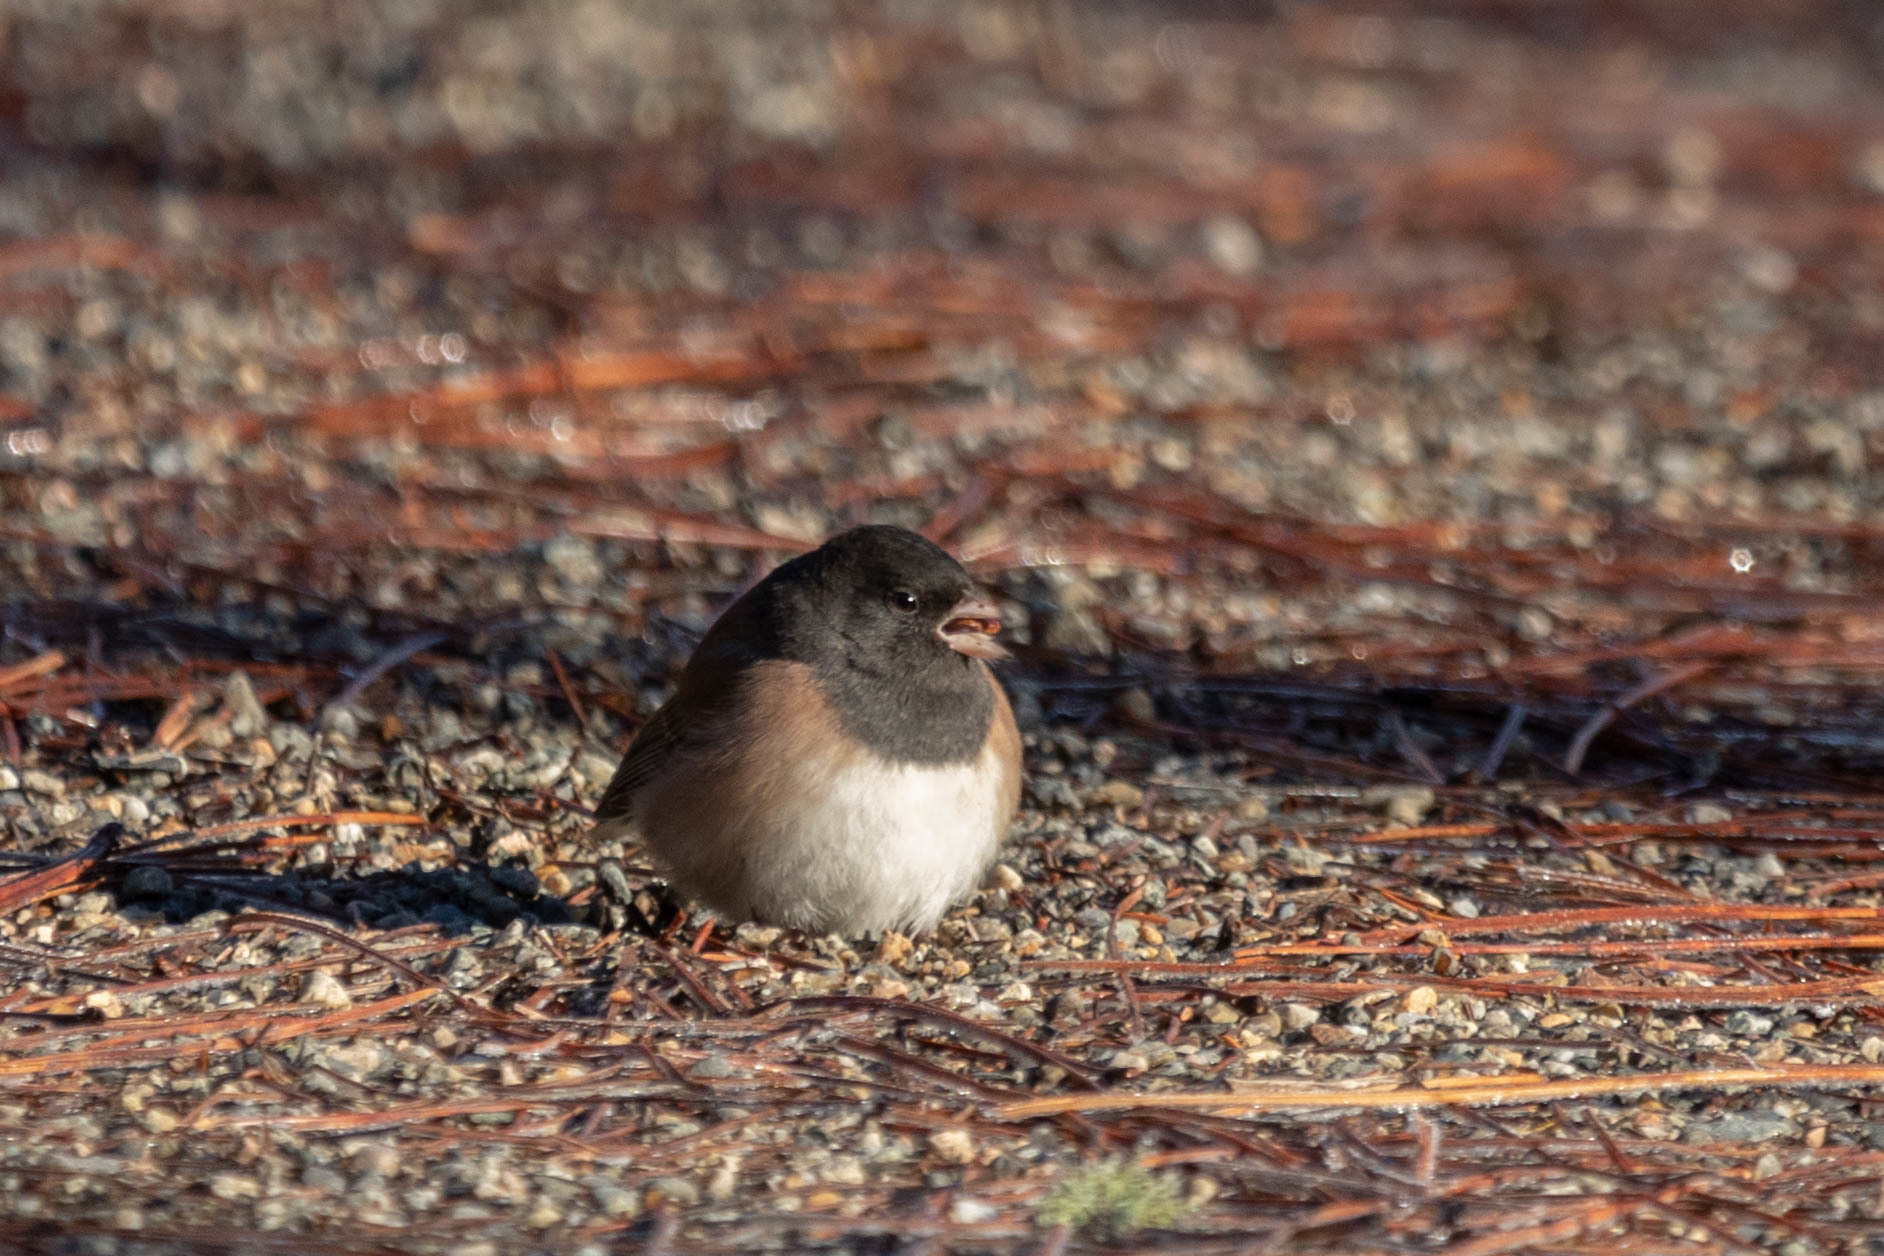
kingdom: Animalia
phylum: Chordata
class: Aves
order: Passeriformes
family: Passerellidae
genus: Junco
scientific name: Junco hyemalis
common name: Dark-eyed junco
